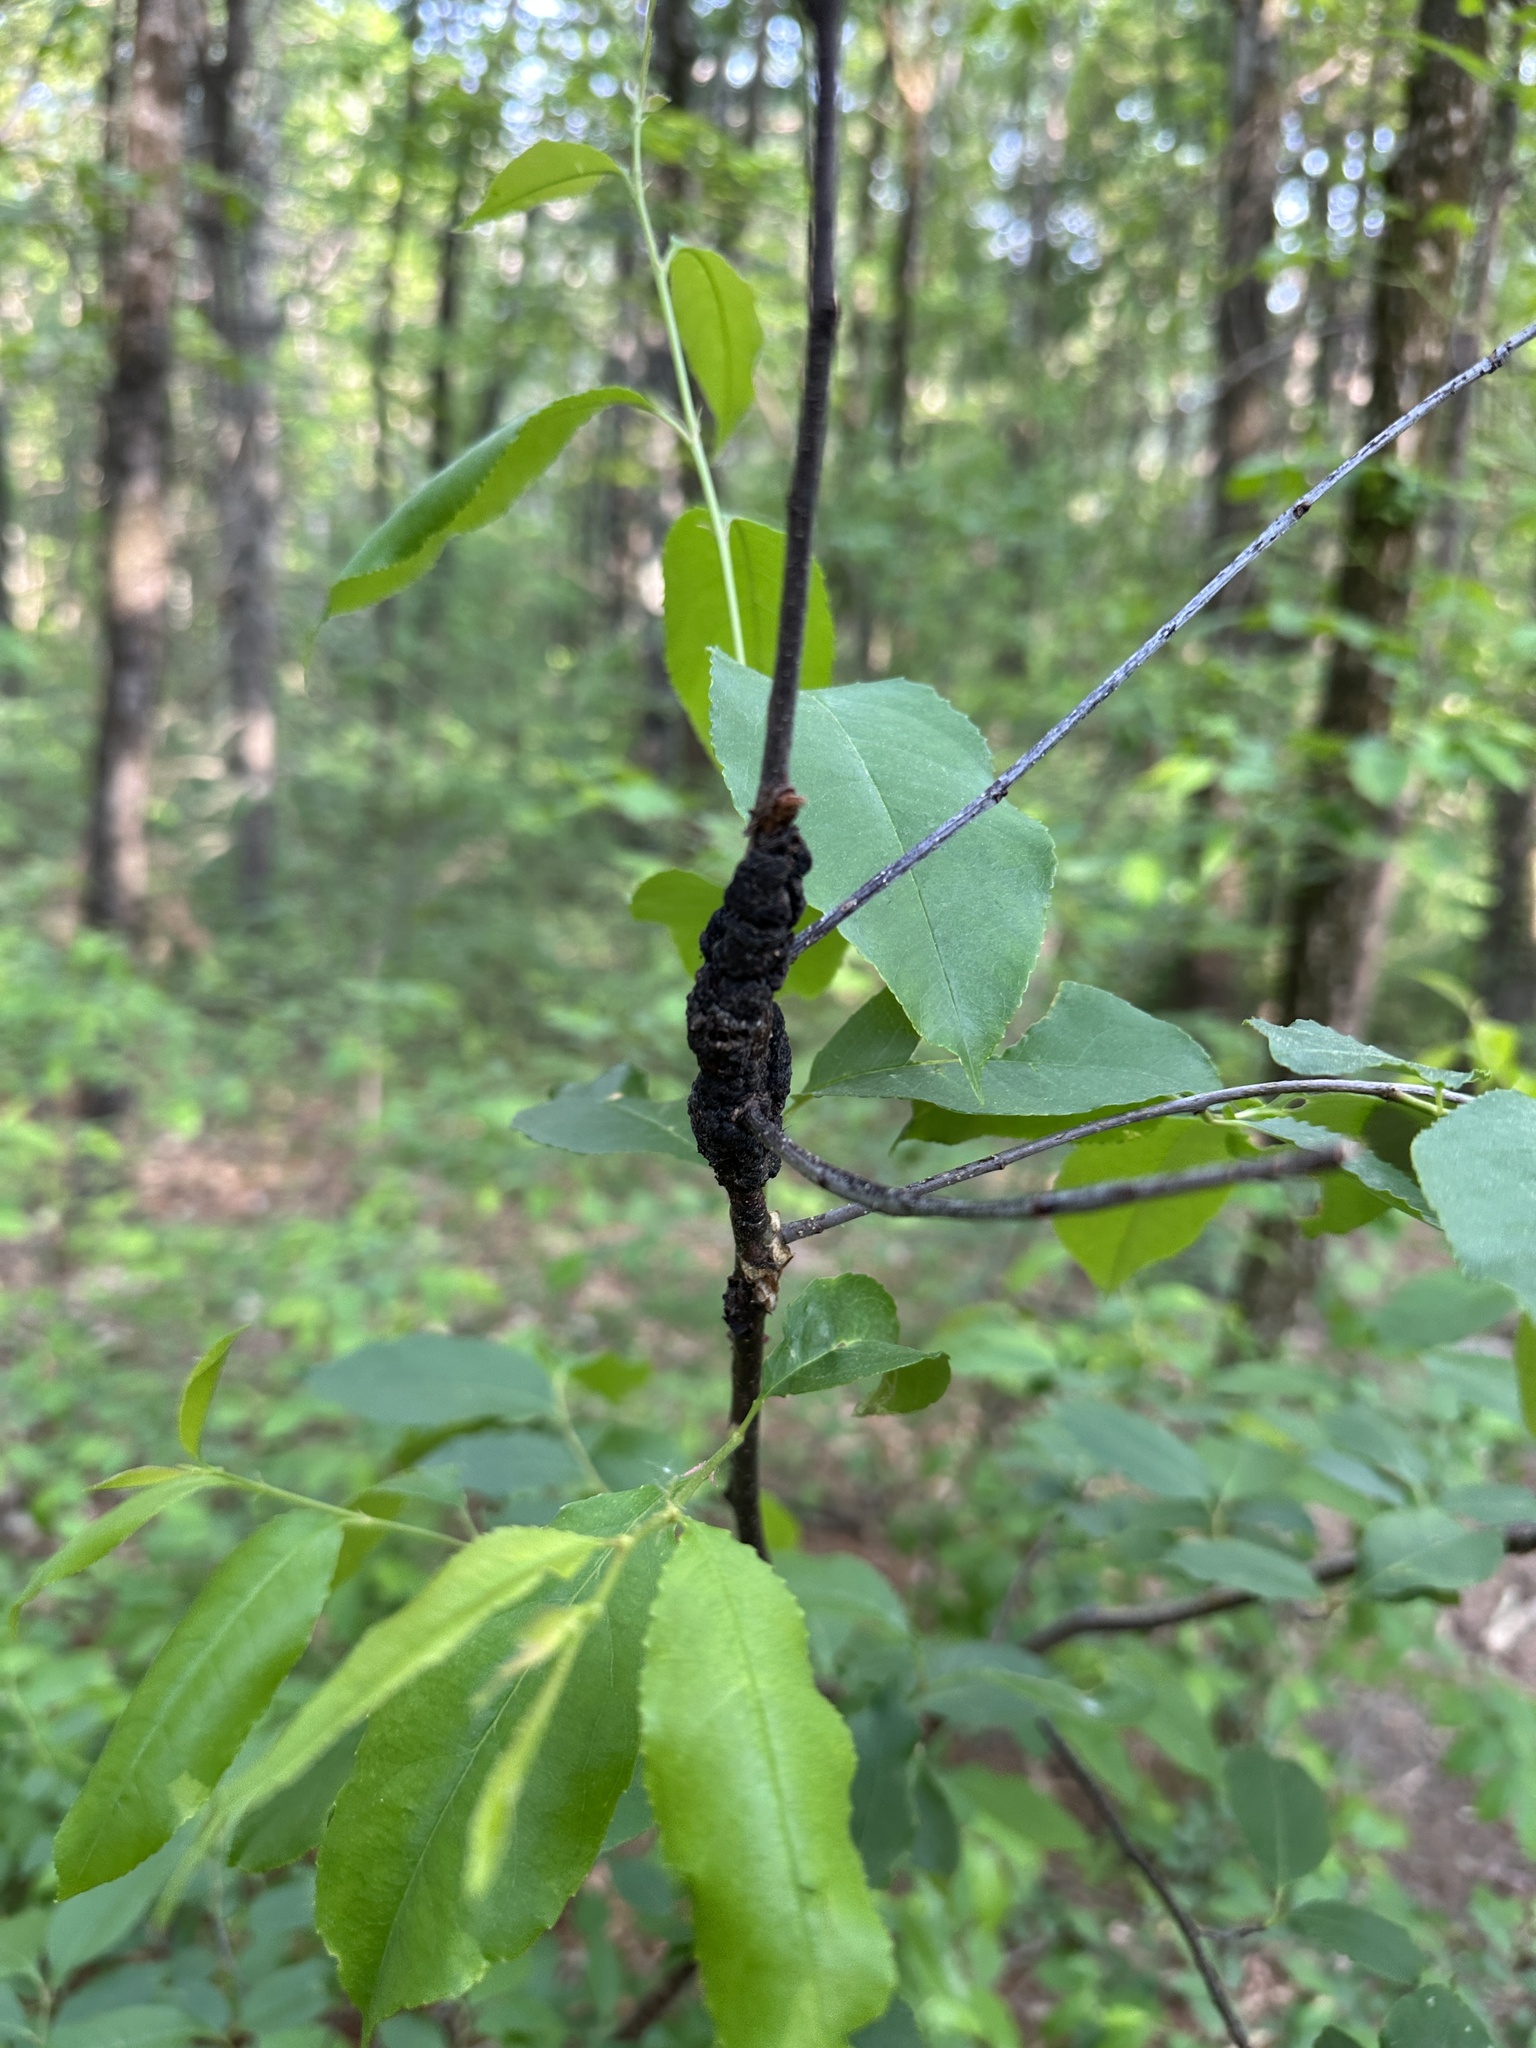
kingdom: Fungi
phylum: Ascomycota
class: Dothideomycetes
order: Venturiales
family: Venturiaceae
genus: Apiosporina
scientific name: Apiosporina morbosa
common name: Black knot
